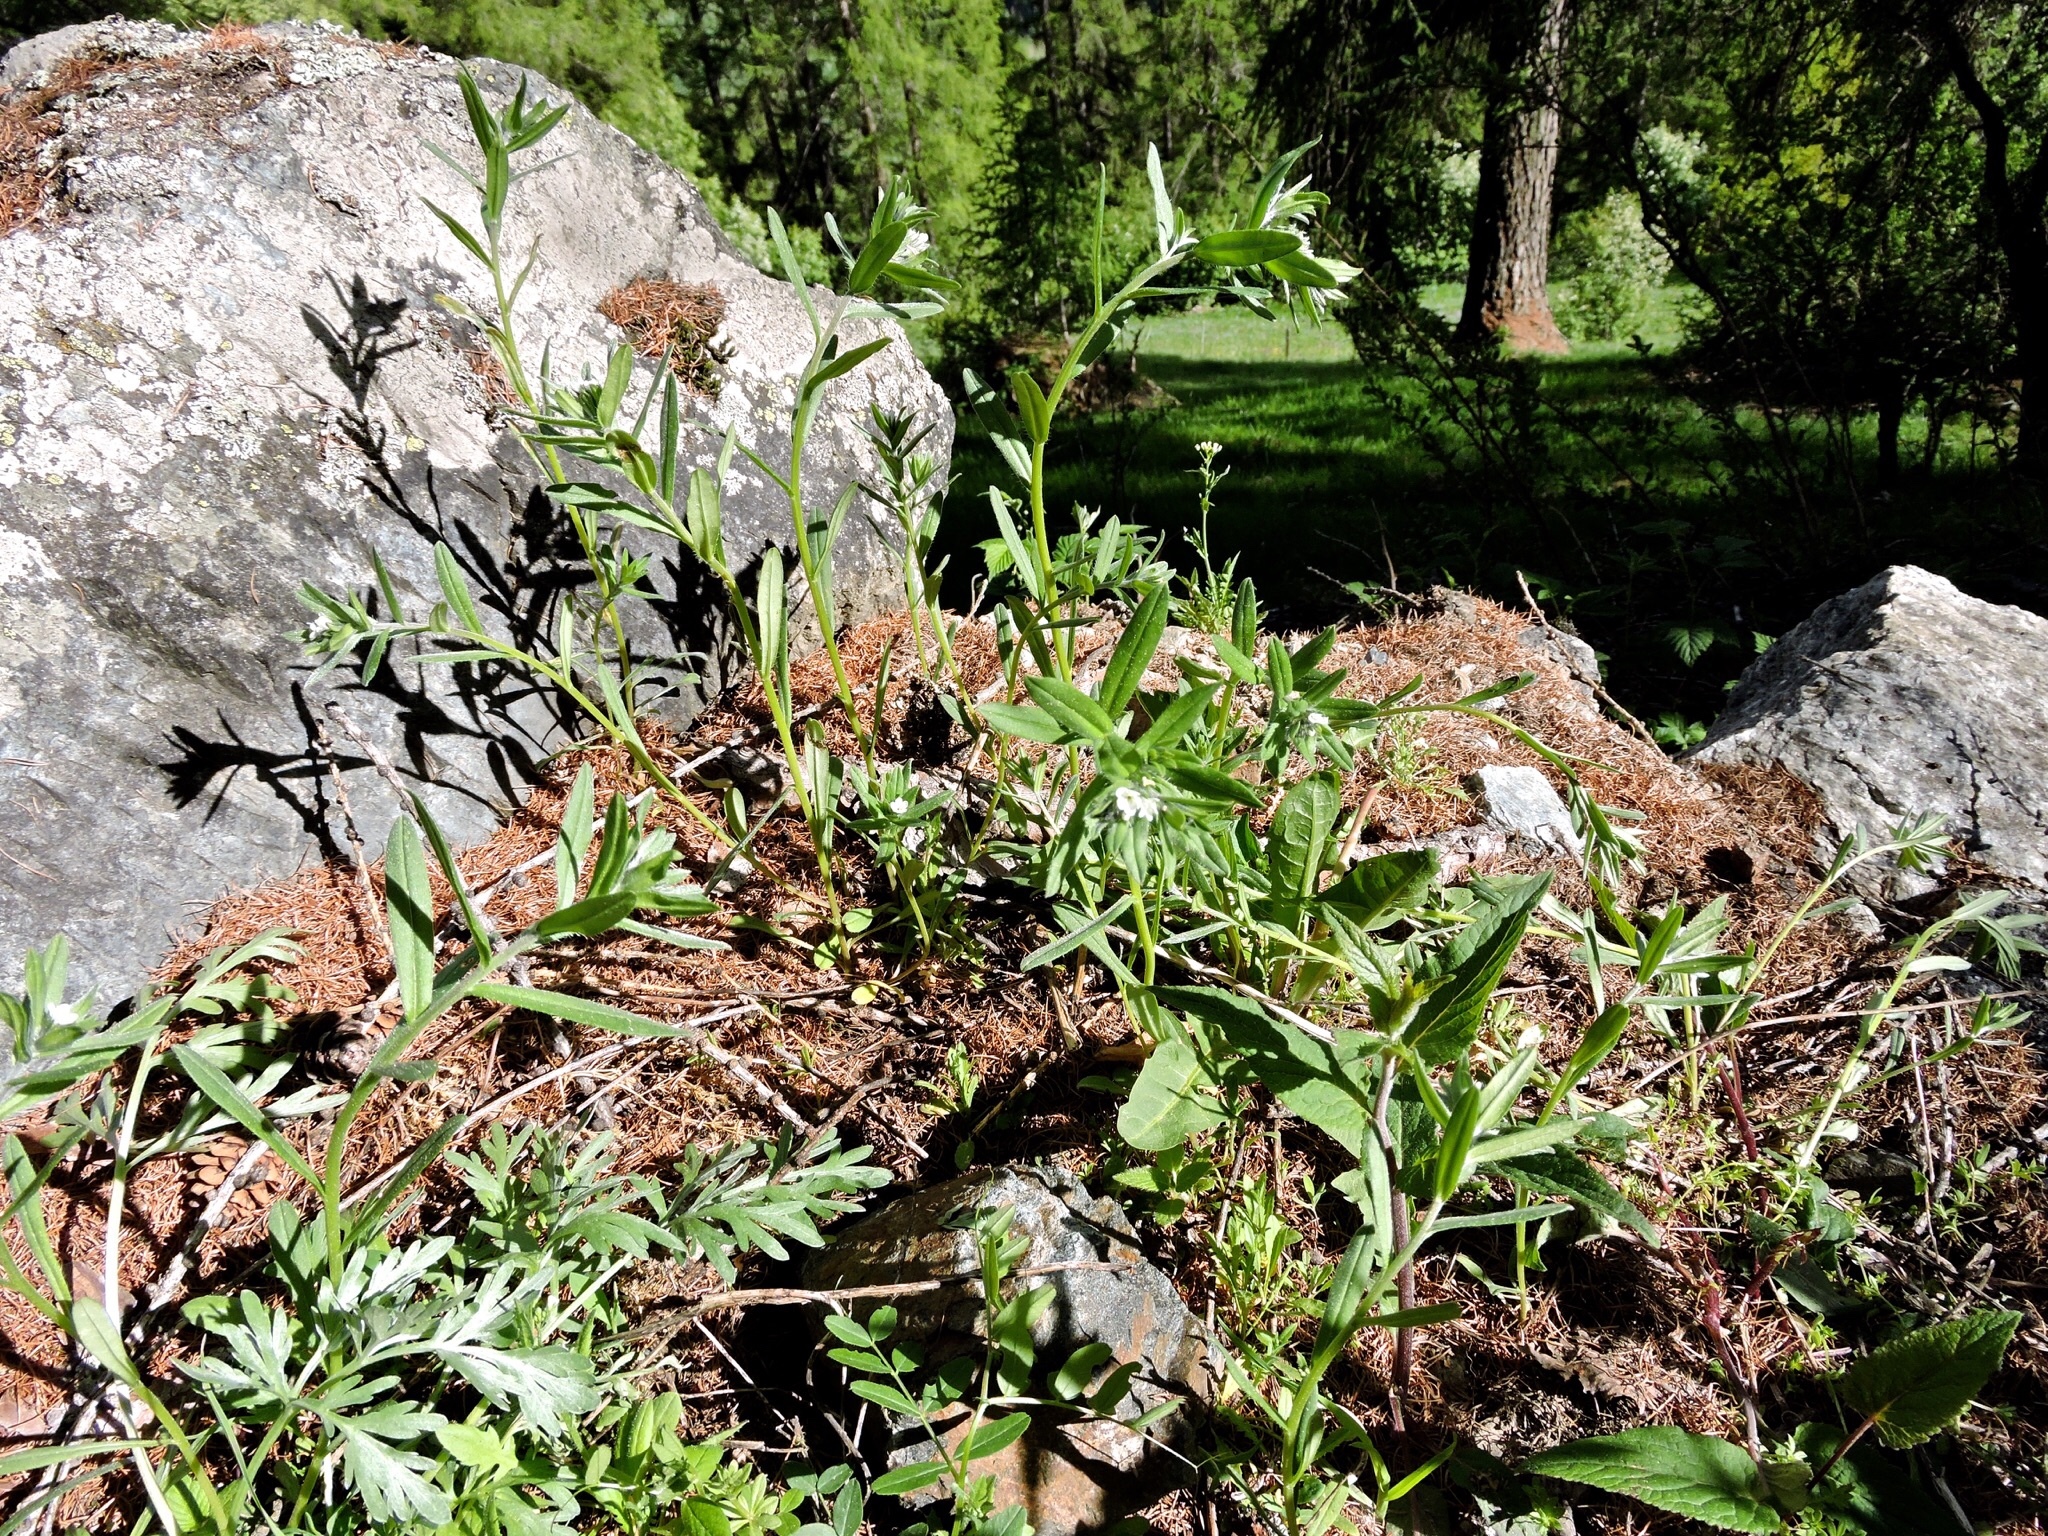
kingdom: Plantae
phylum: Tracheophyta
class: Magnoliopsida
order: Boraginales
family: Boraginaceae
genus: Buglossoides
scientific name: Buglossoides arvensis
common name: Corn gromwell
